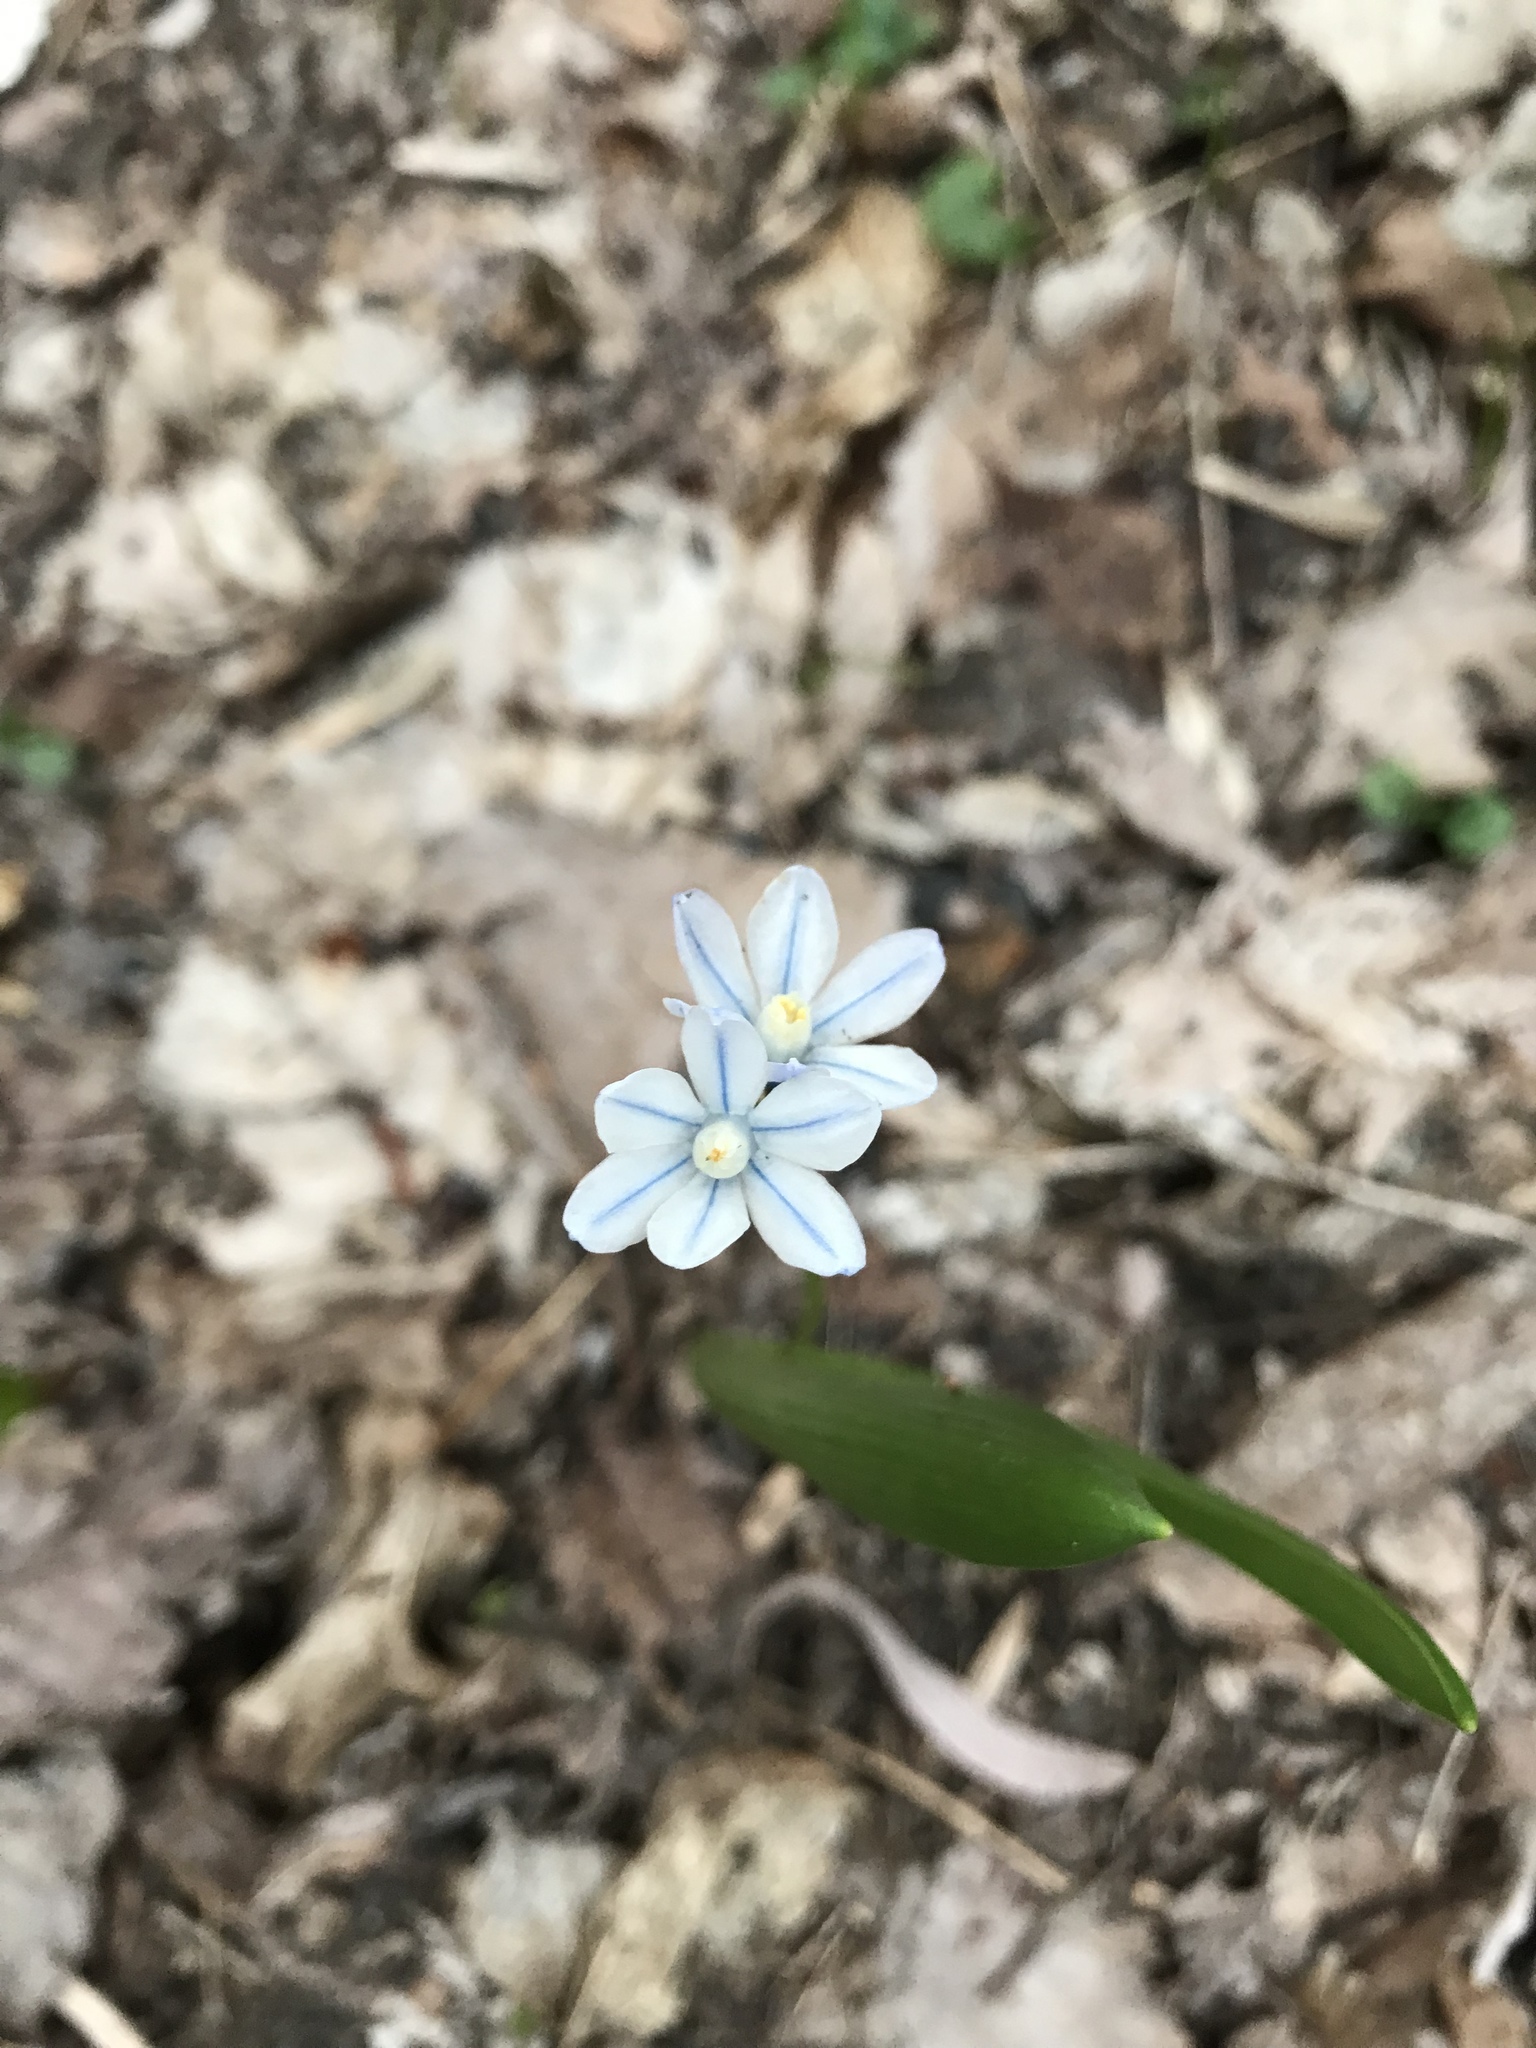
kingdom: Plantae
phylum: Tracheophyta
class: Liliopsida
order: Asparagales
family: Asparagaceae
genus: Puschkinia
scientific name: Puschkinia scilloides
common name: Striped squill
